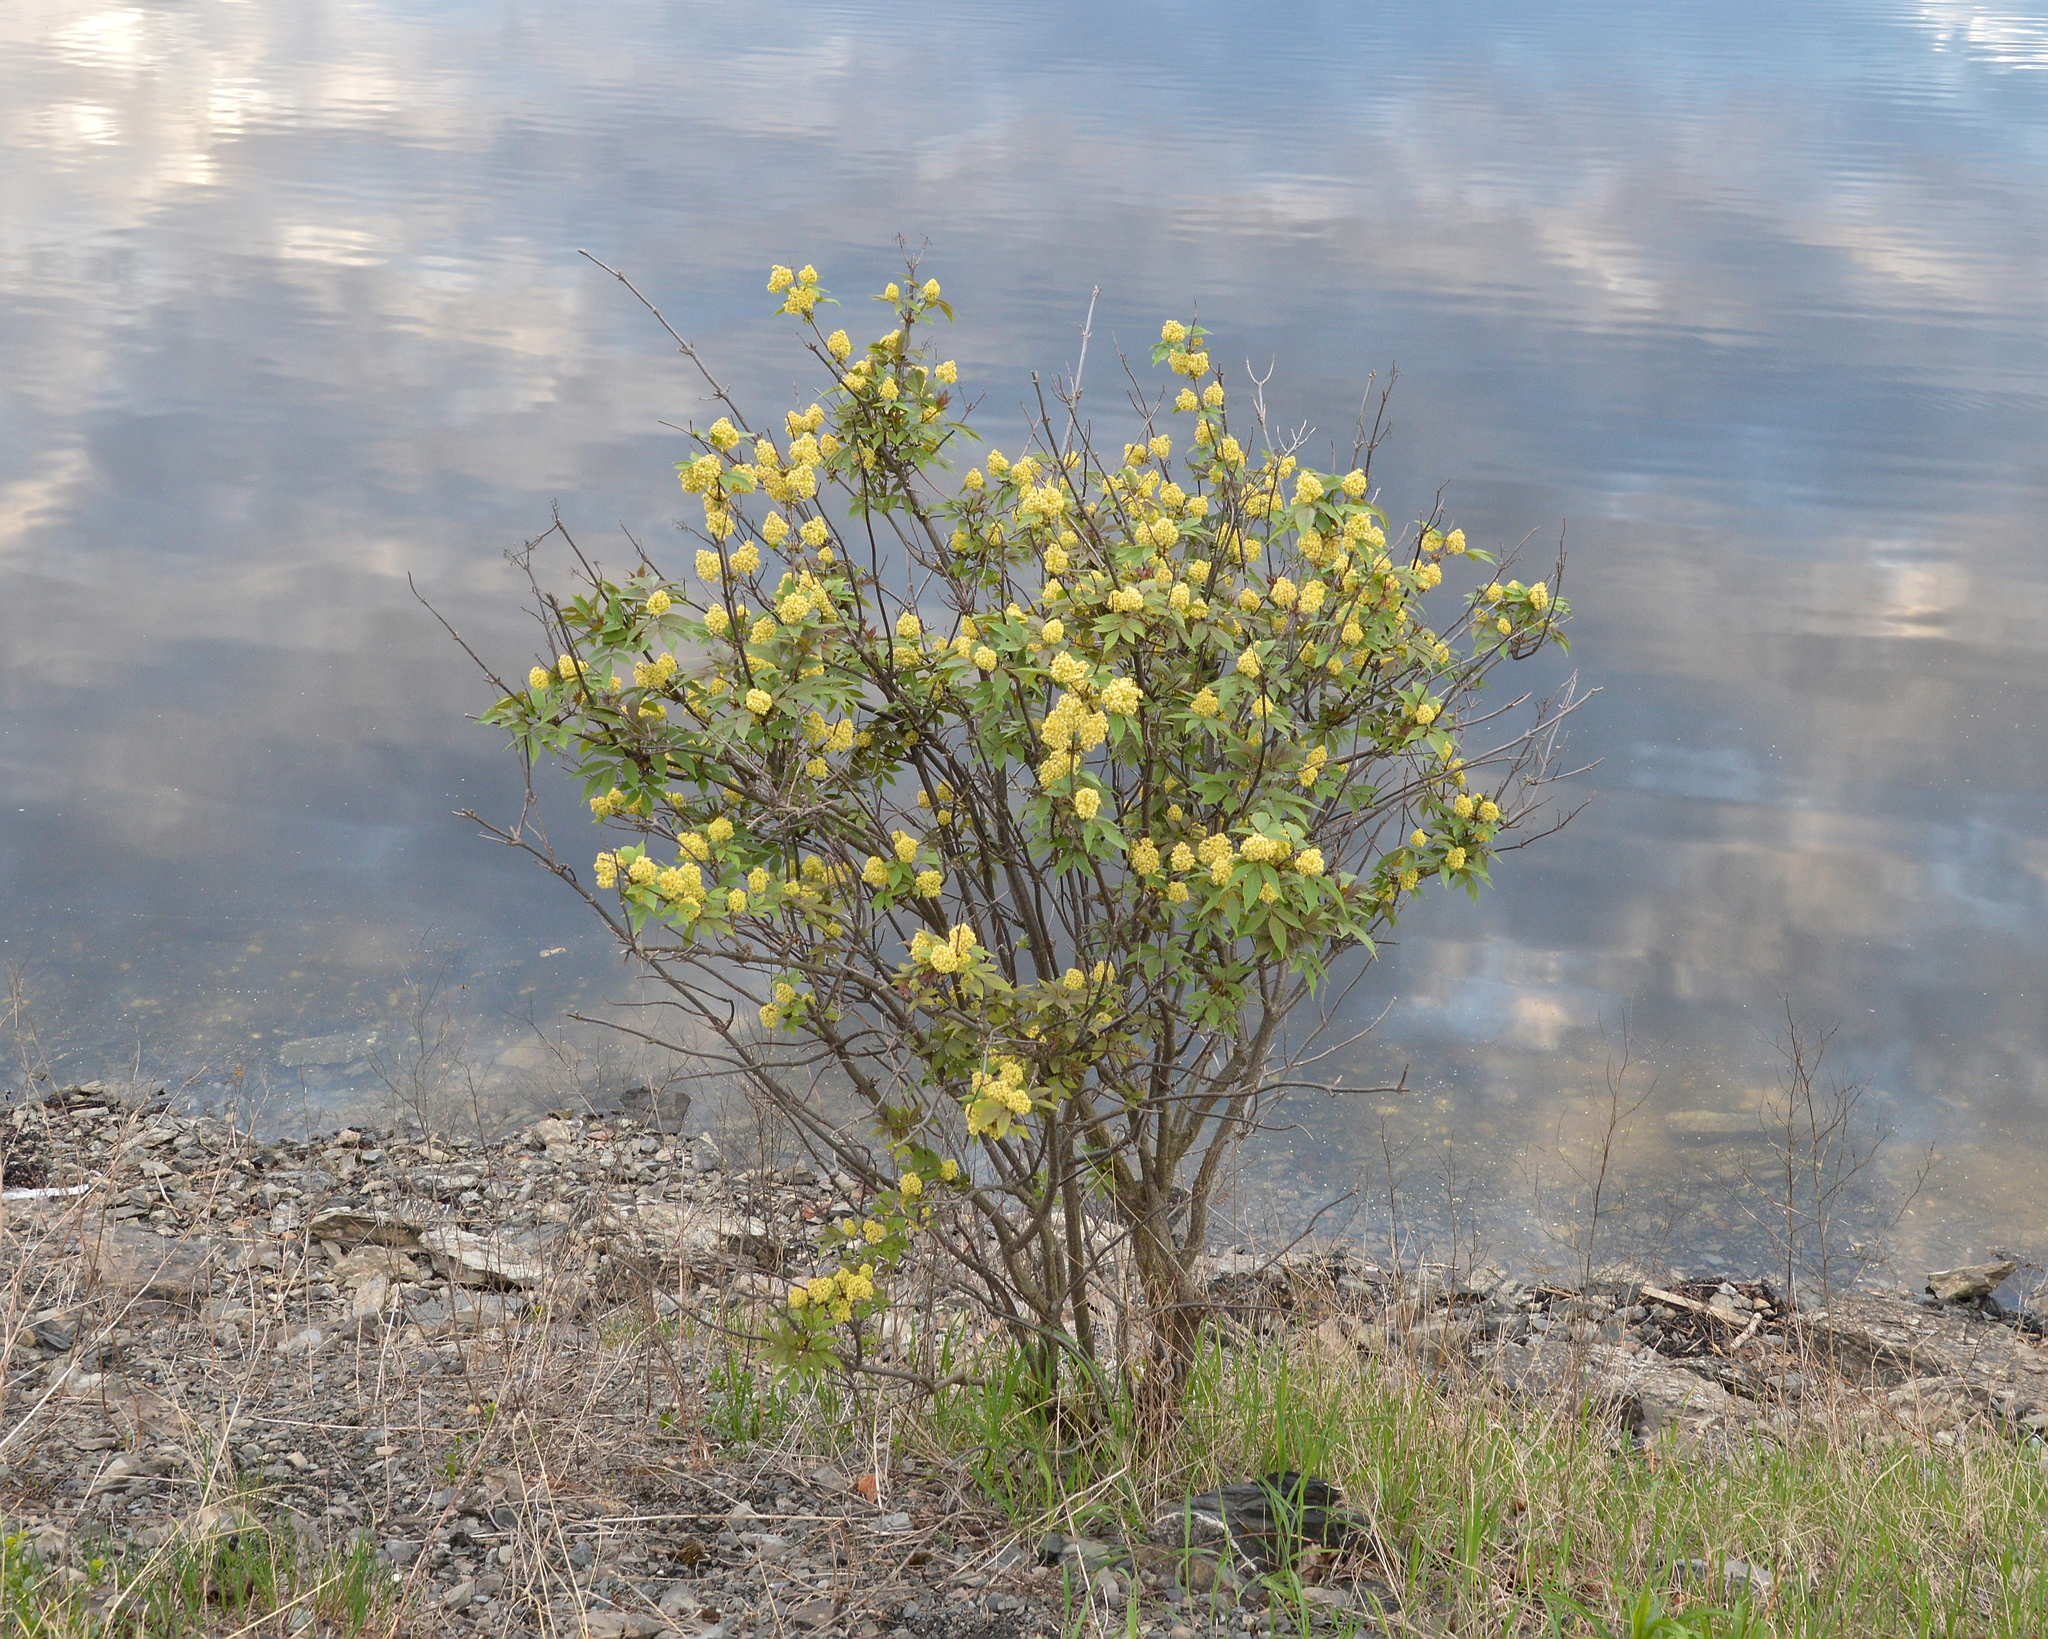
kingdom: Plantae
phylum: Tracheophyta
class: Magnoliopsida
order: Dipsacales
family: Viburnaceae
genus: Sambucus
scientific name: Sambucus racemosa
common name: Red-berried elder
